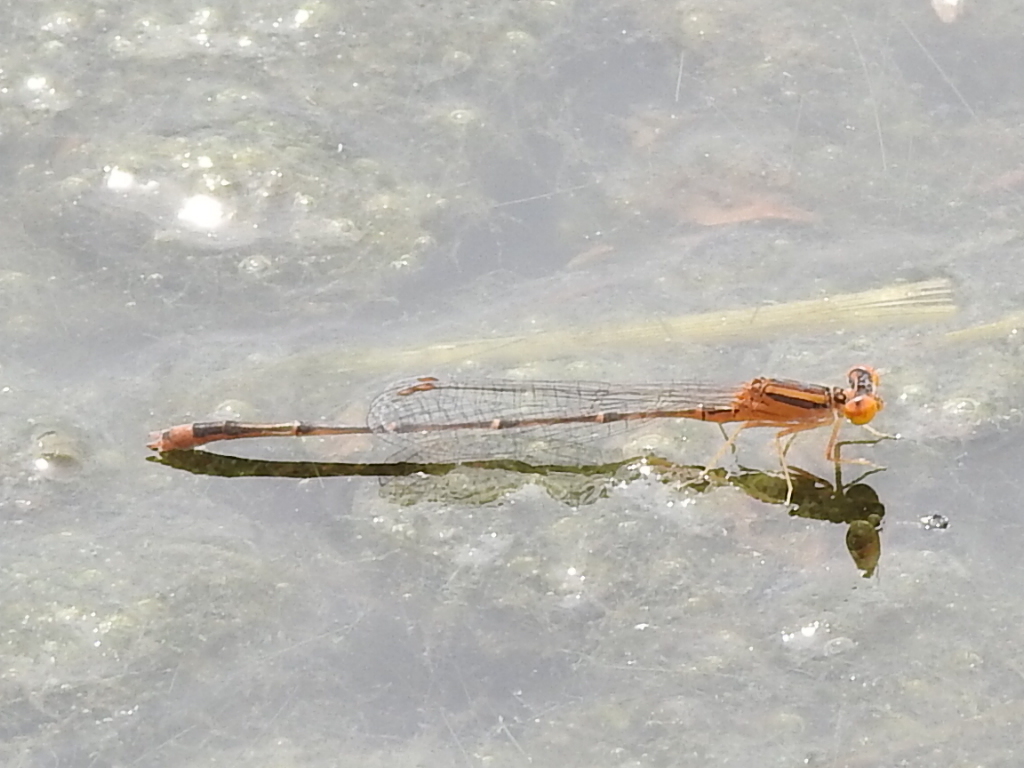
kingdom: Animalia
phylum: Arthropoda
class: Insecta
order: Odonata
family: Coenagrionidae
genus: Enallagma
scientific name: Enallagma signatum
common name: Orange bluet
